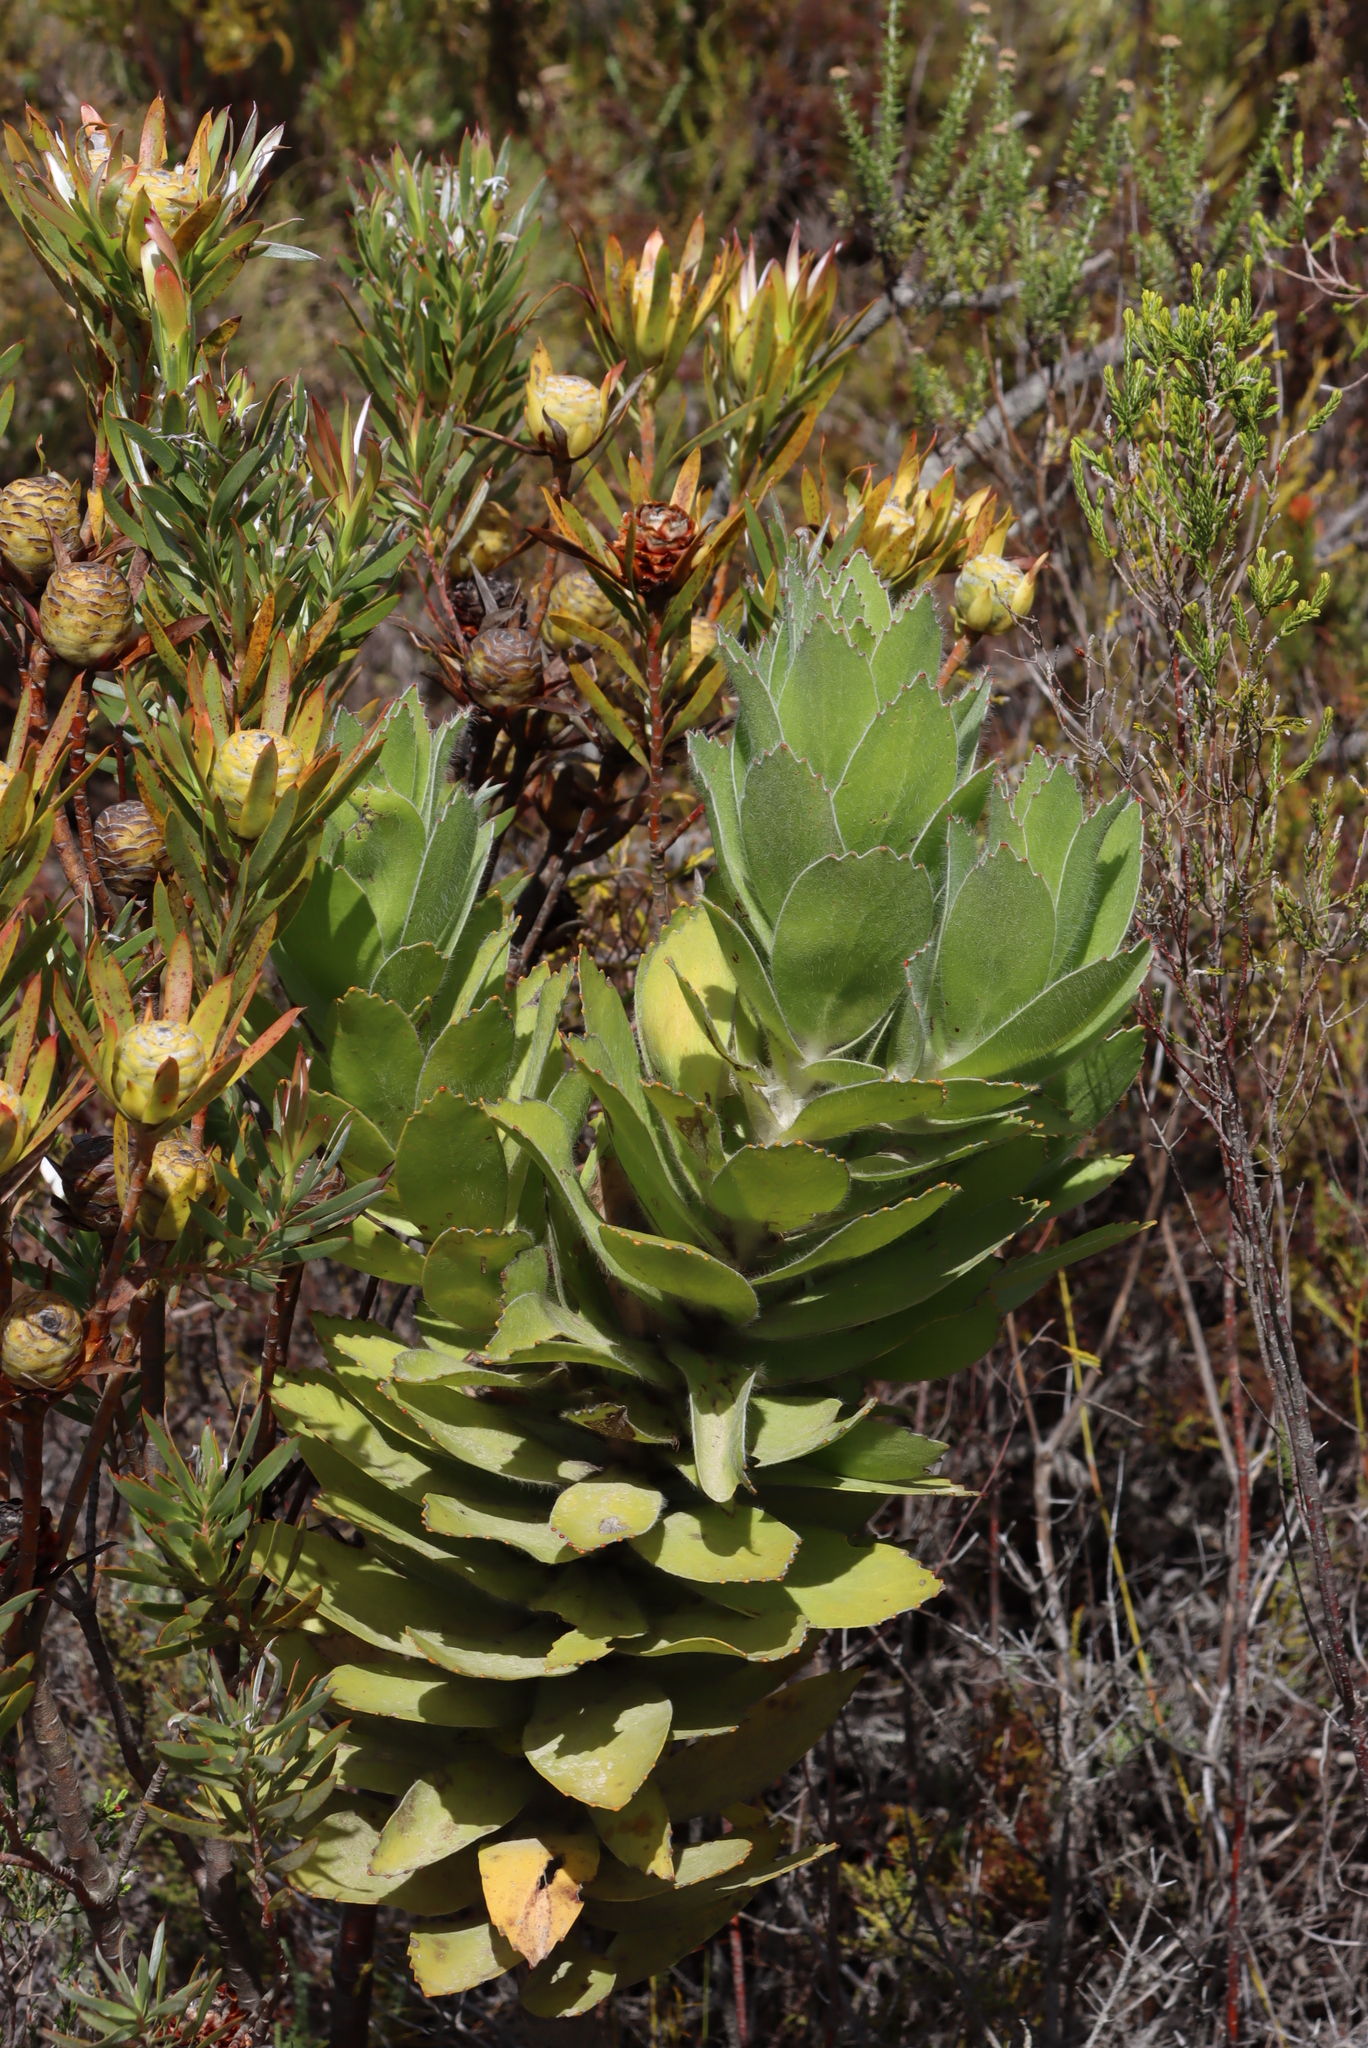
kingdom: Plantae
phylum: Tracheophyta
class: Magnoliopsida
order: Proteales
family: Proteaceae
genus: Leucospermum
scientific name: Leucospermum conocarpodendron
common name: Tree pincushion
